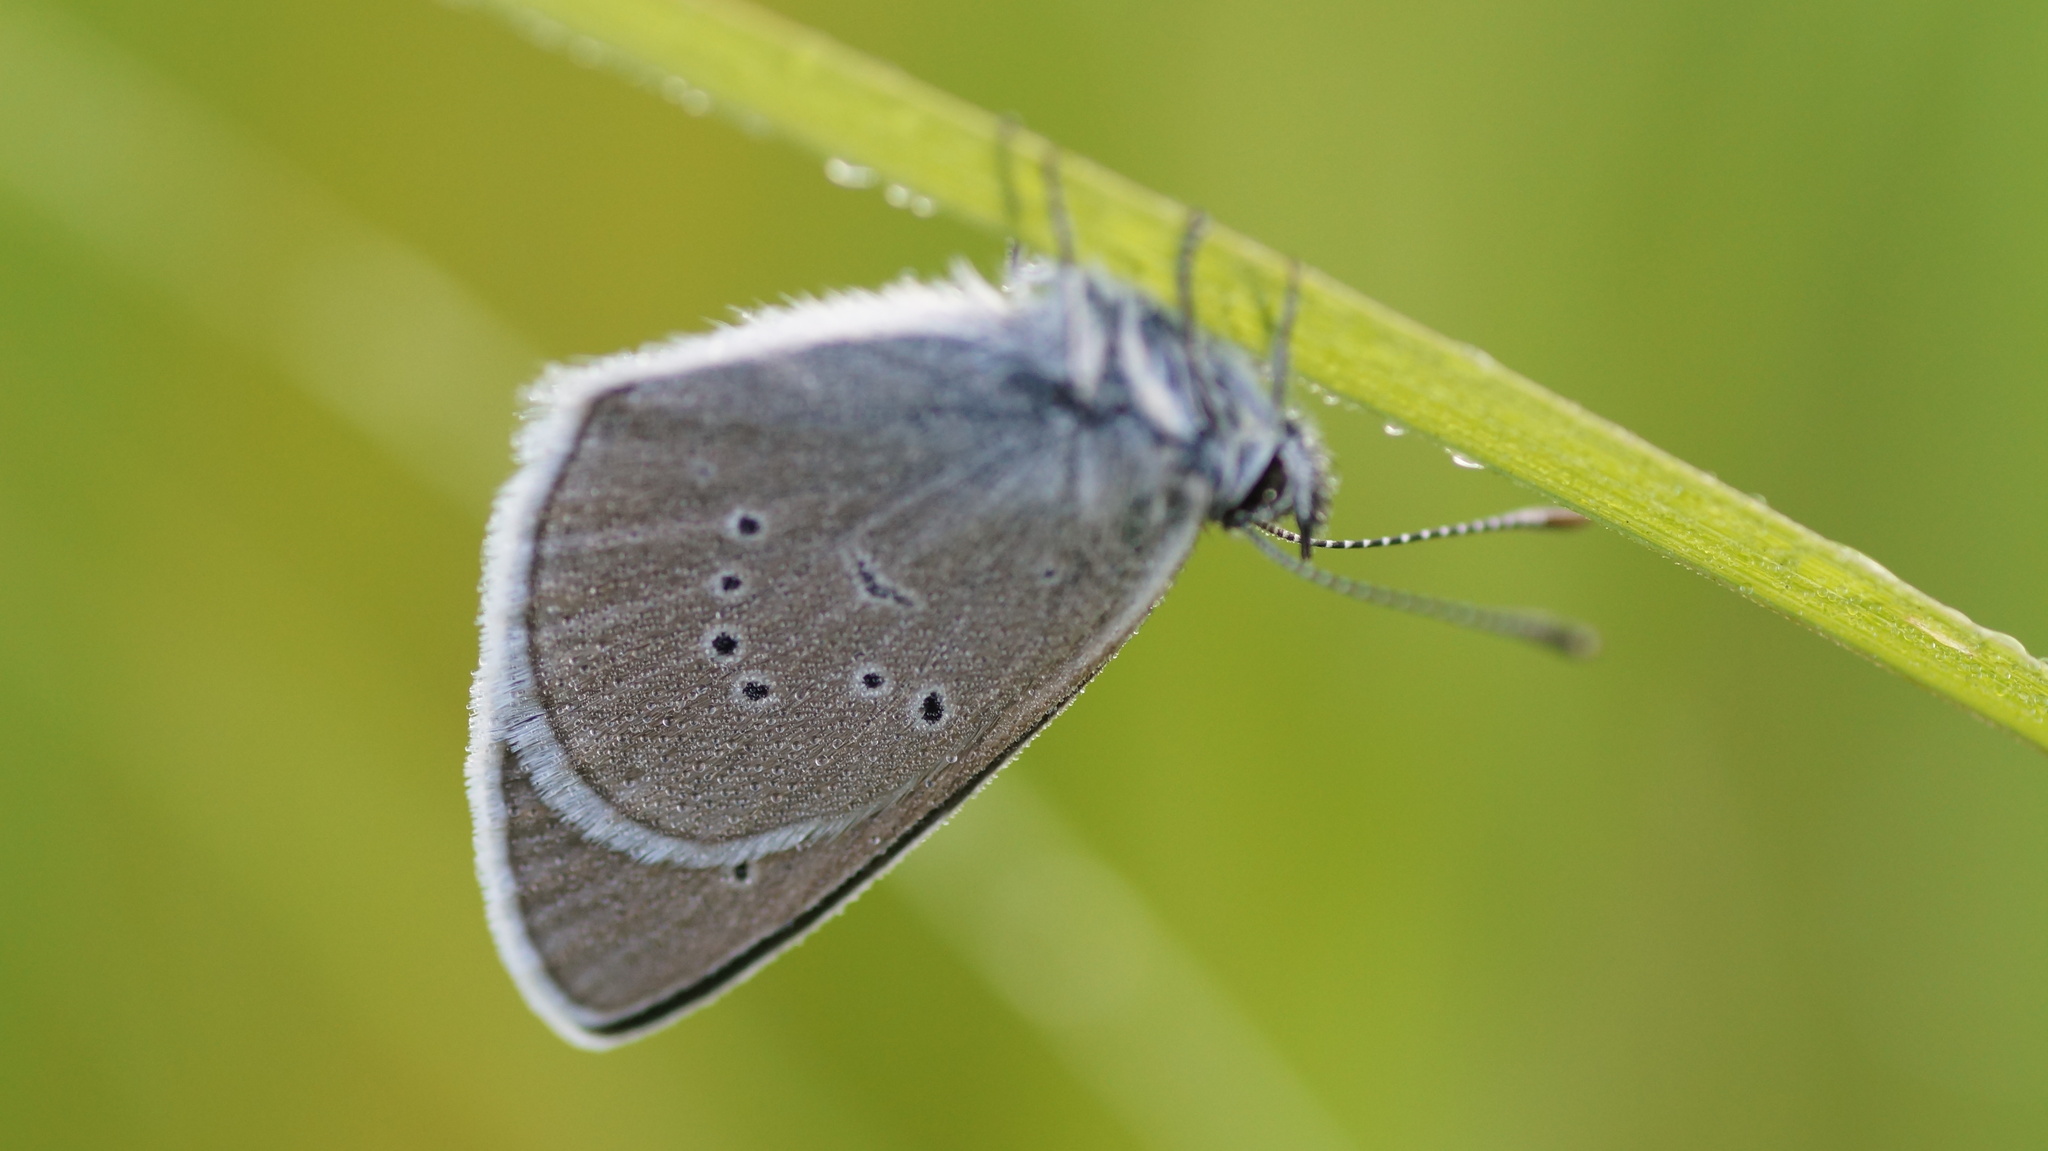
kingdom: Animalia
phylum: Arthropoda
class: Insecta
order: Lepidoptera
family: Lycaenidae
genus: Cyaniris
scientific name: Cyaniris semiargus
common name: Mazarine blue
